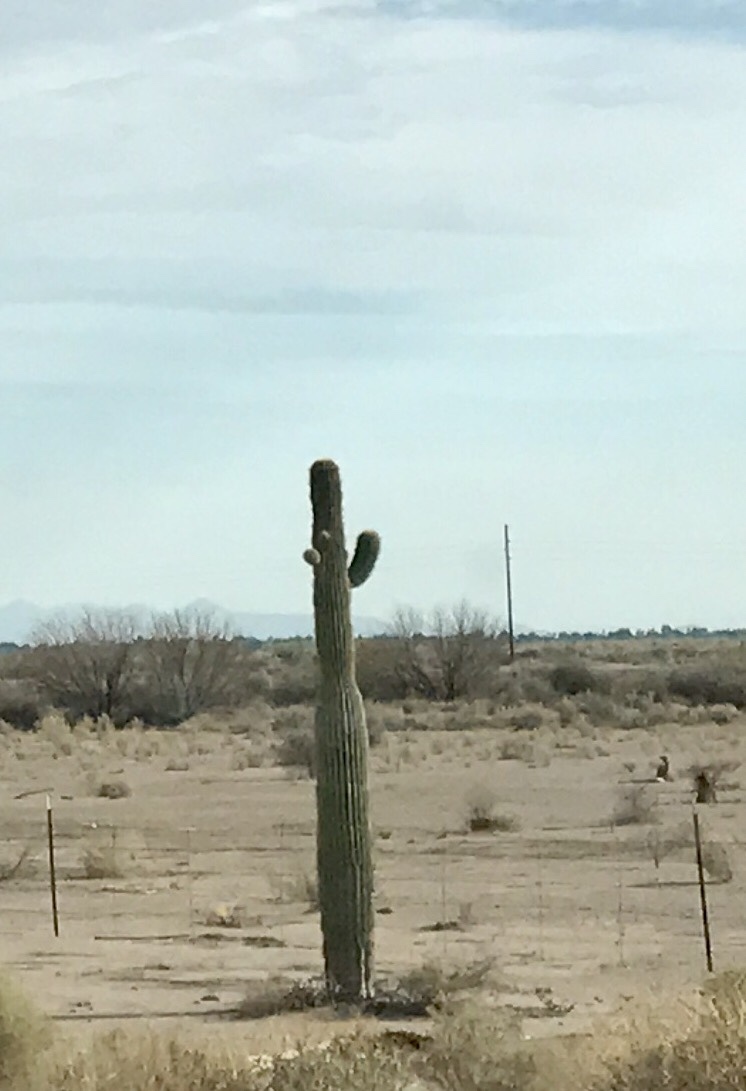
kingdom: Plantae
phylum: Tracheophyta
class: Magnoliopsida
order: Caryophyllales
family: Cactaceae
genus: Carnegiea
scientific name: Carnegiea gigantea
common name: Saguaro
